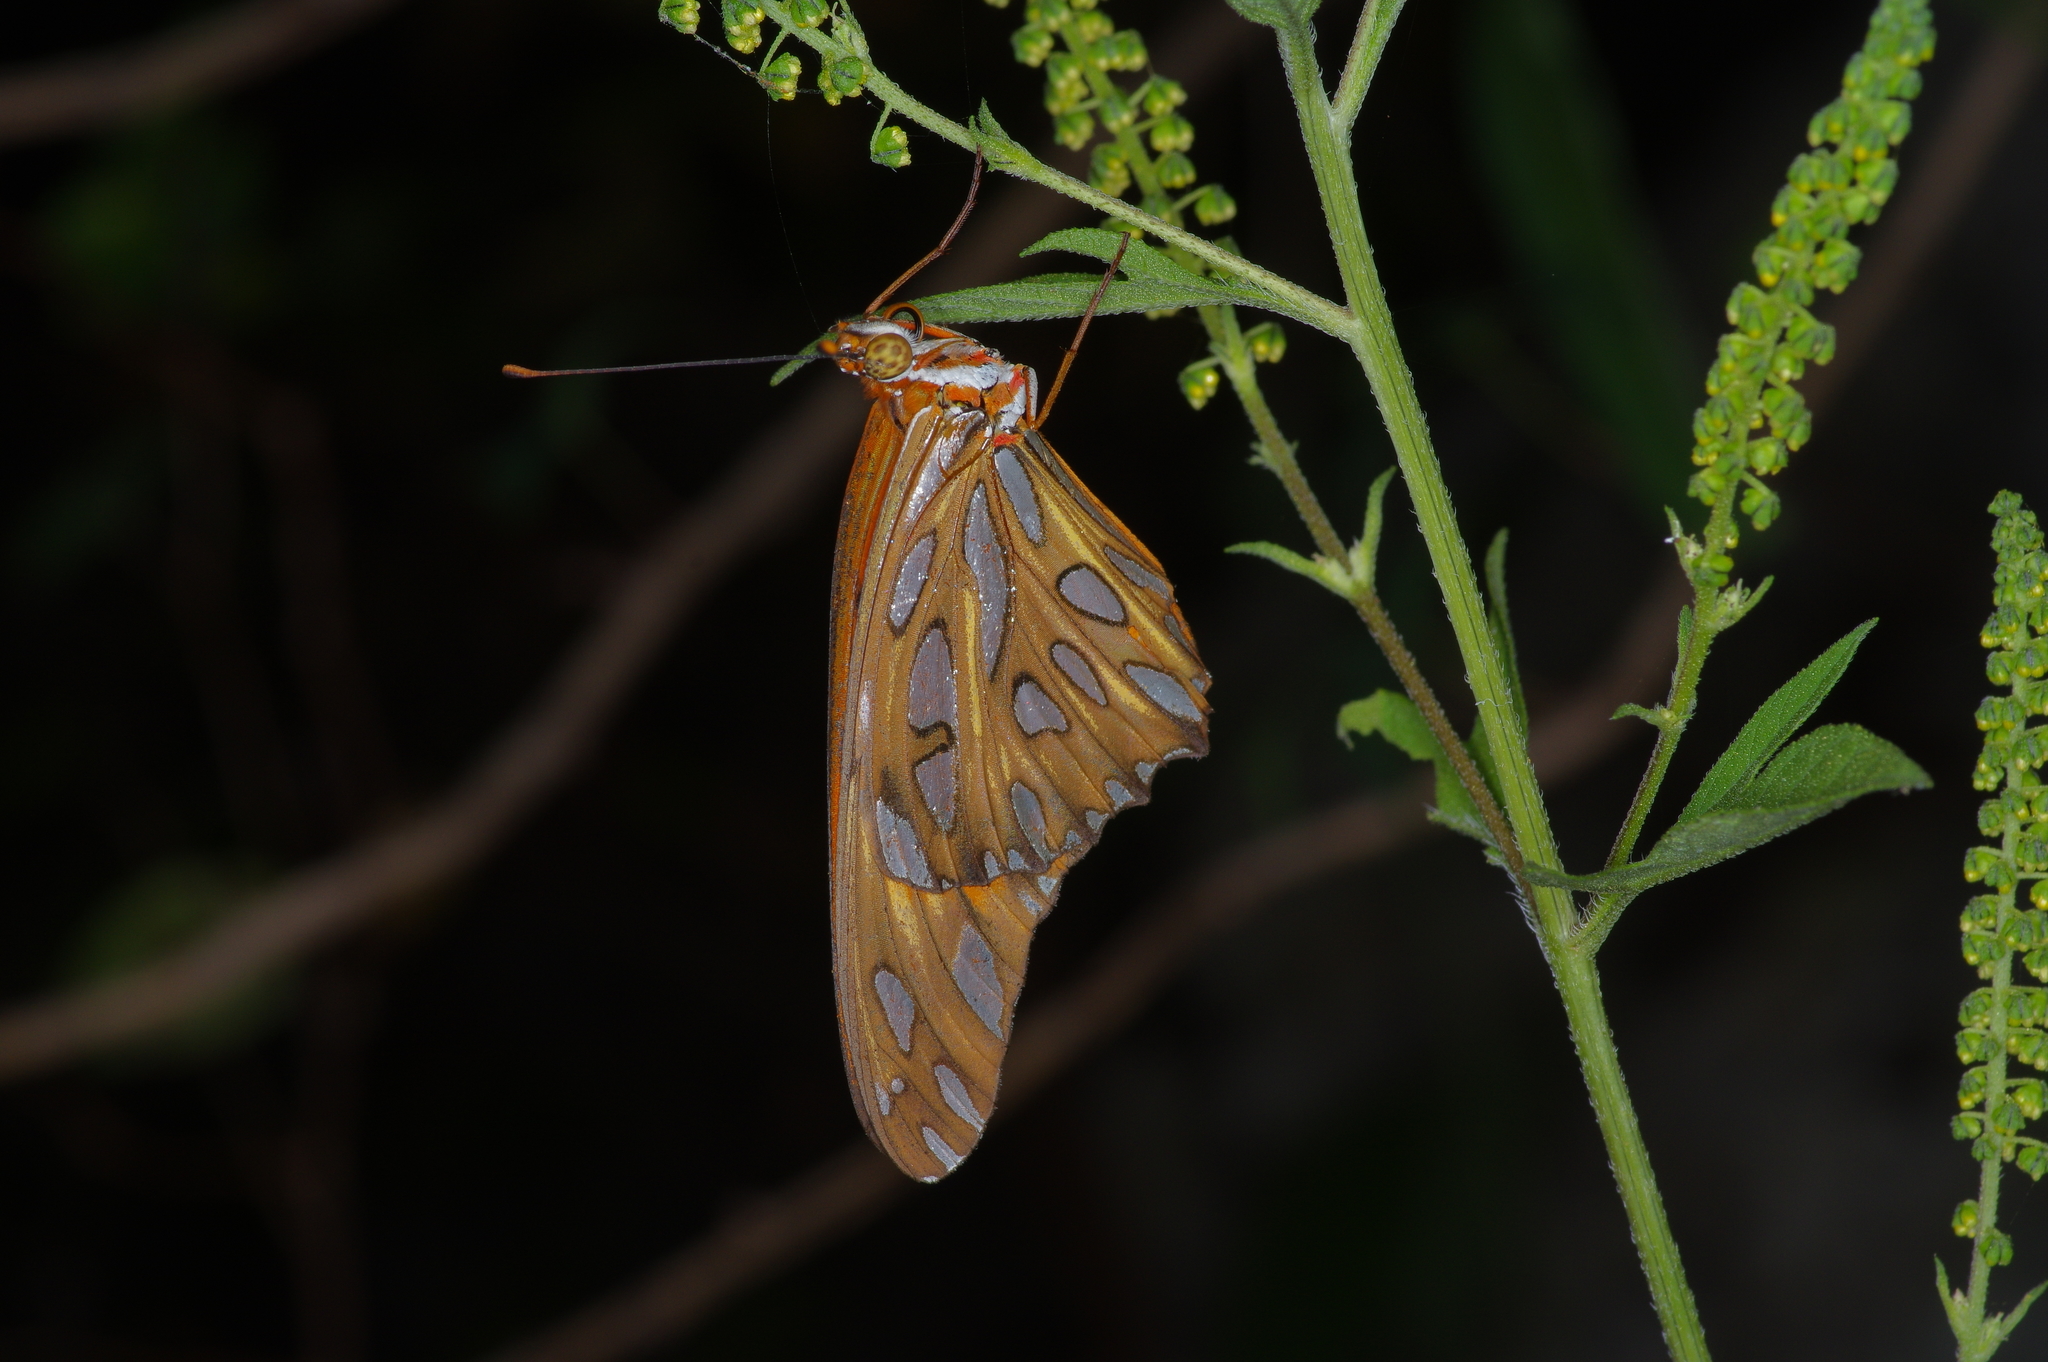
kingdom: Animalia
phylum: Arthropoda
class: Insecta
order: Lepidoptera
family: Nymphalidae
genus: Dione
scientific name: Dione vanillae
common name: Gulf fritillary
